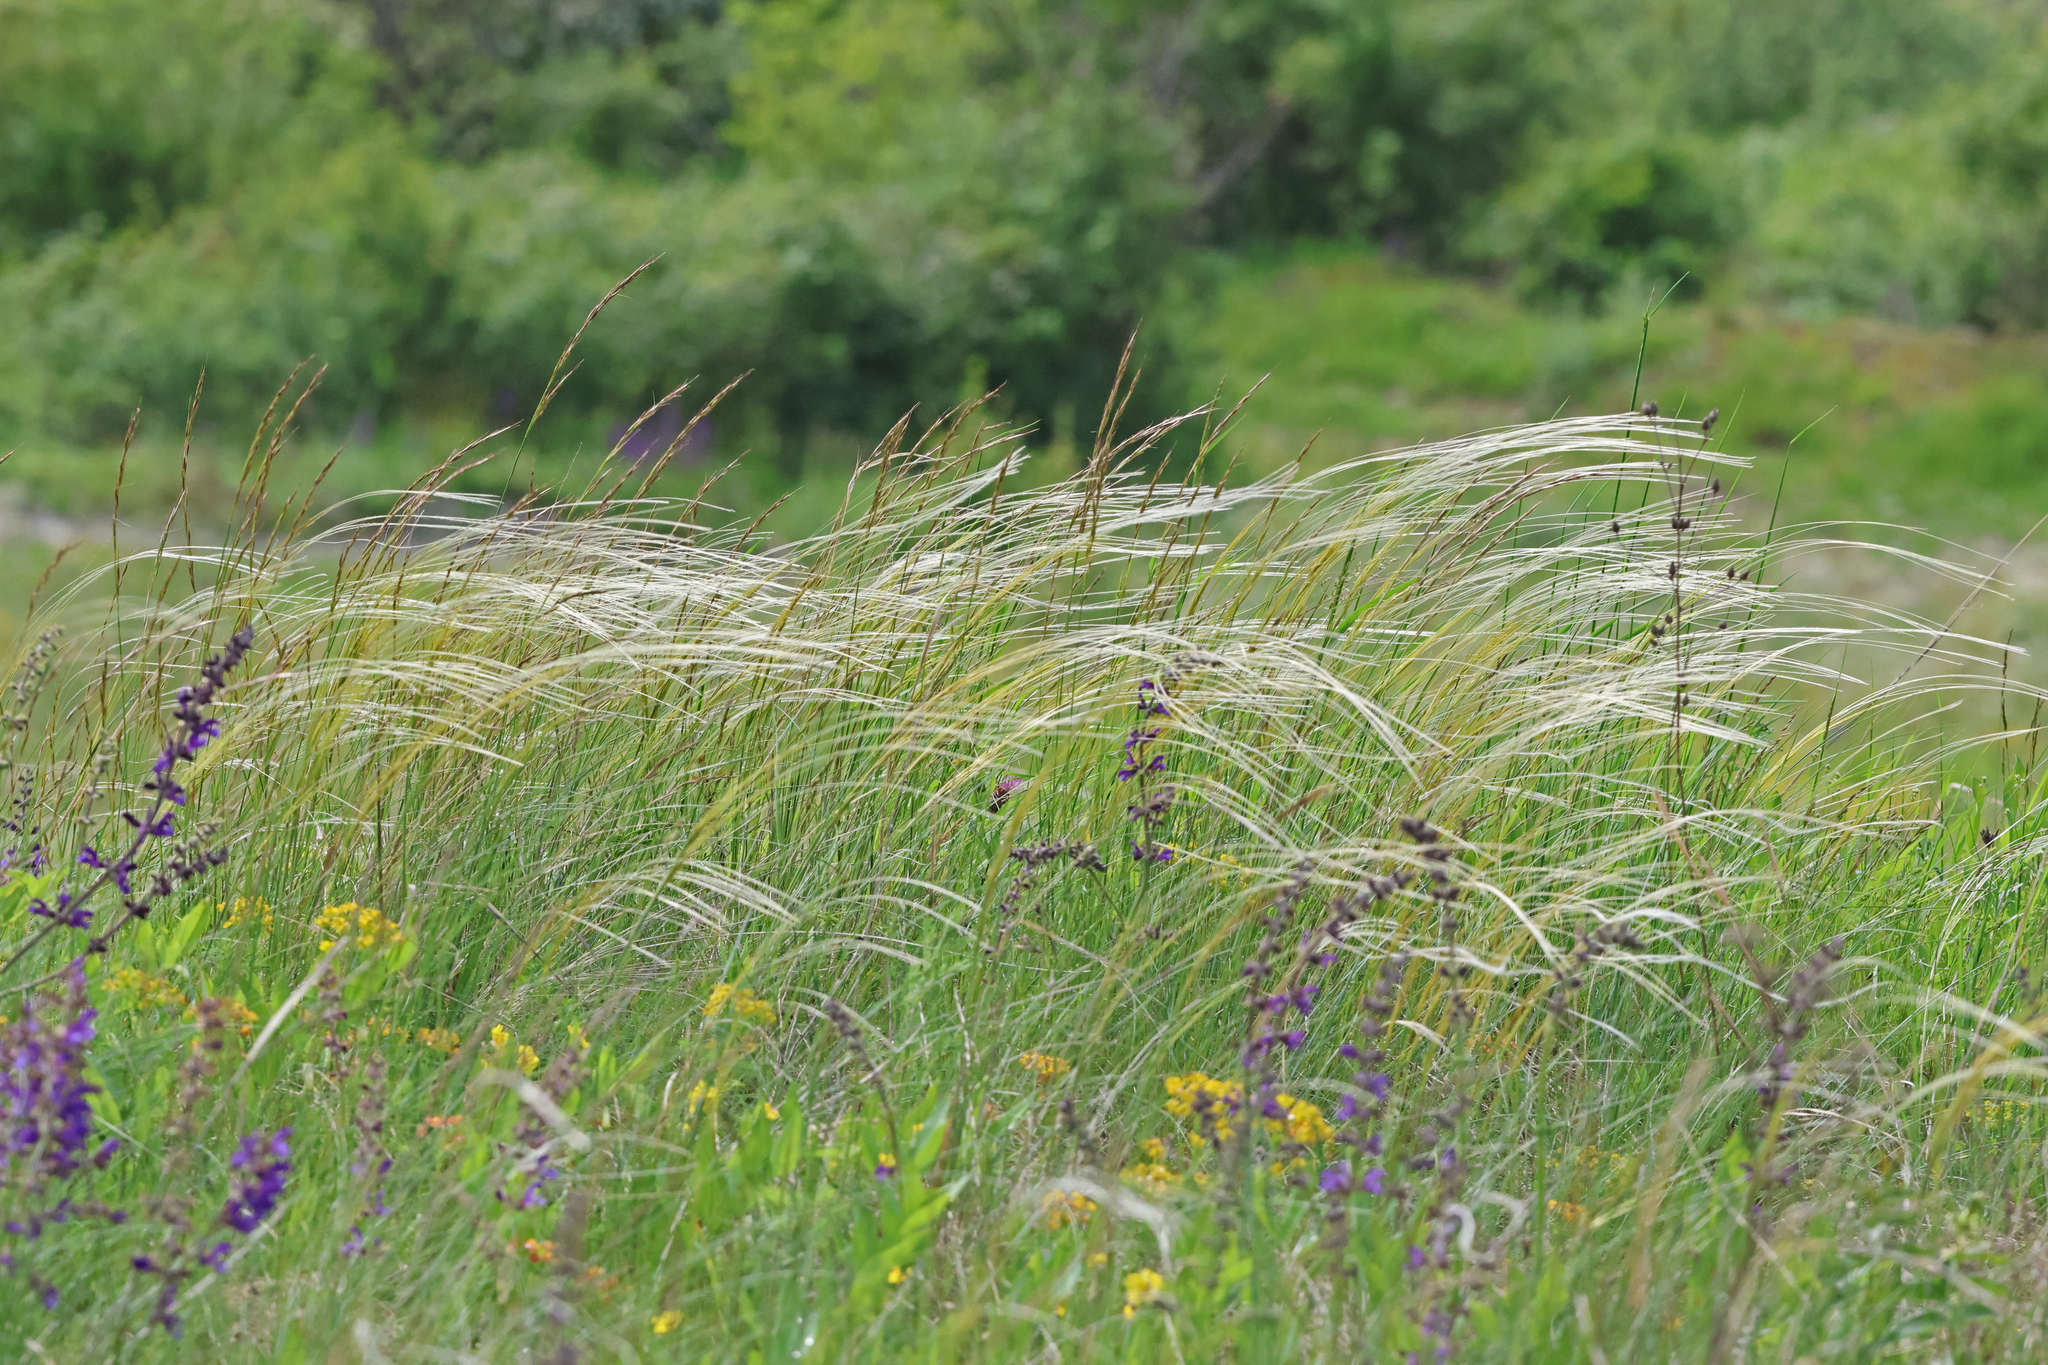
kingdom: Plantae
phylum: Tracheophyta
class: Liliopsida
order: Poales
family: Poaceae
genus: Stipa
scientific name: Stipa pennata
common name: European feather grass
